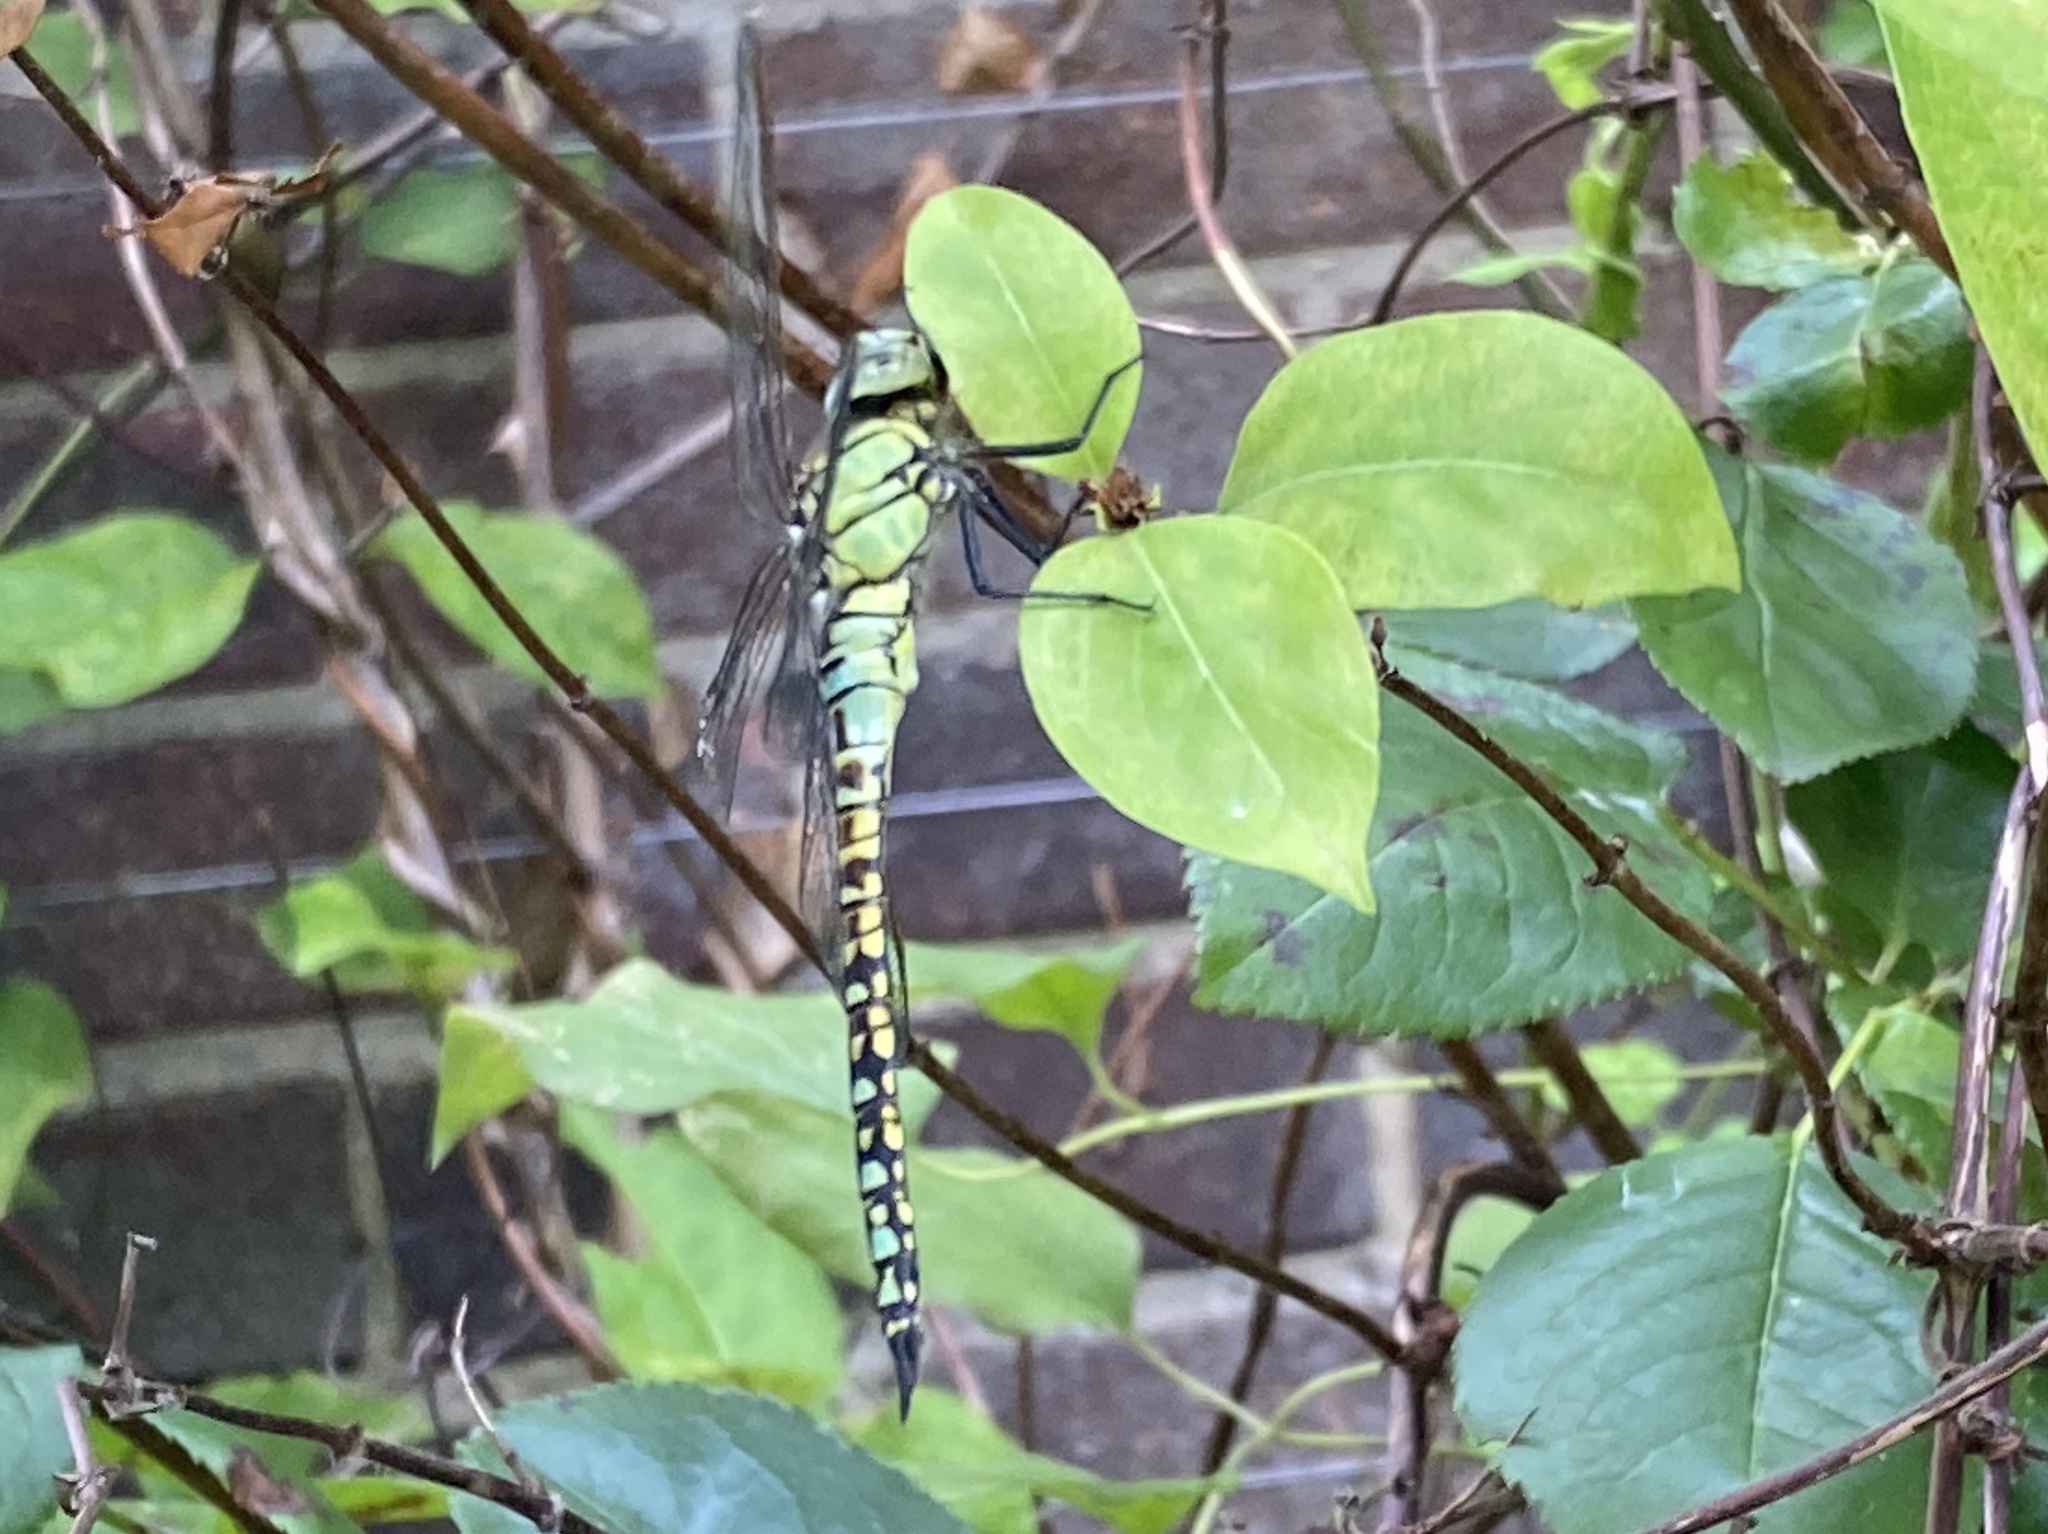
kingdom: Animalia
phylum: Arthropoda
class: Insecta
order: Odonata
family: Aeshnidae
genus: Aeshna
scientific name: Aeshna affinis
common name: Southern migrant hawker
